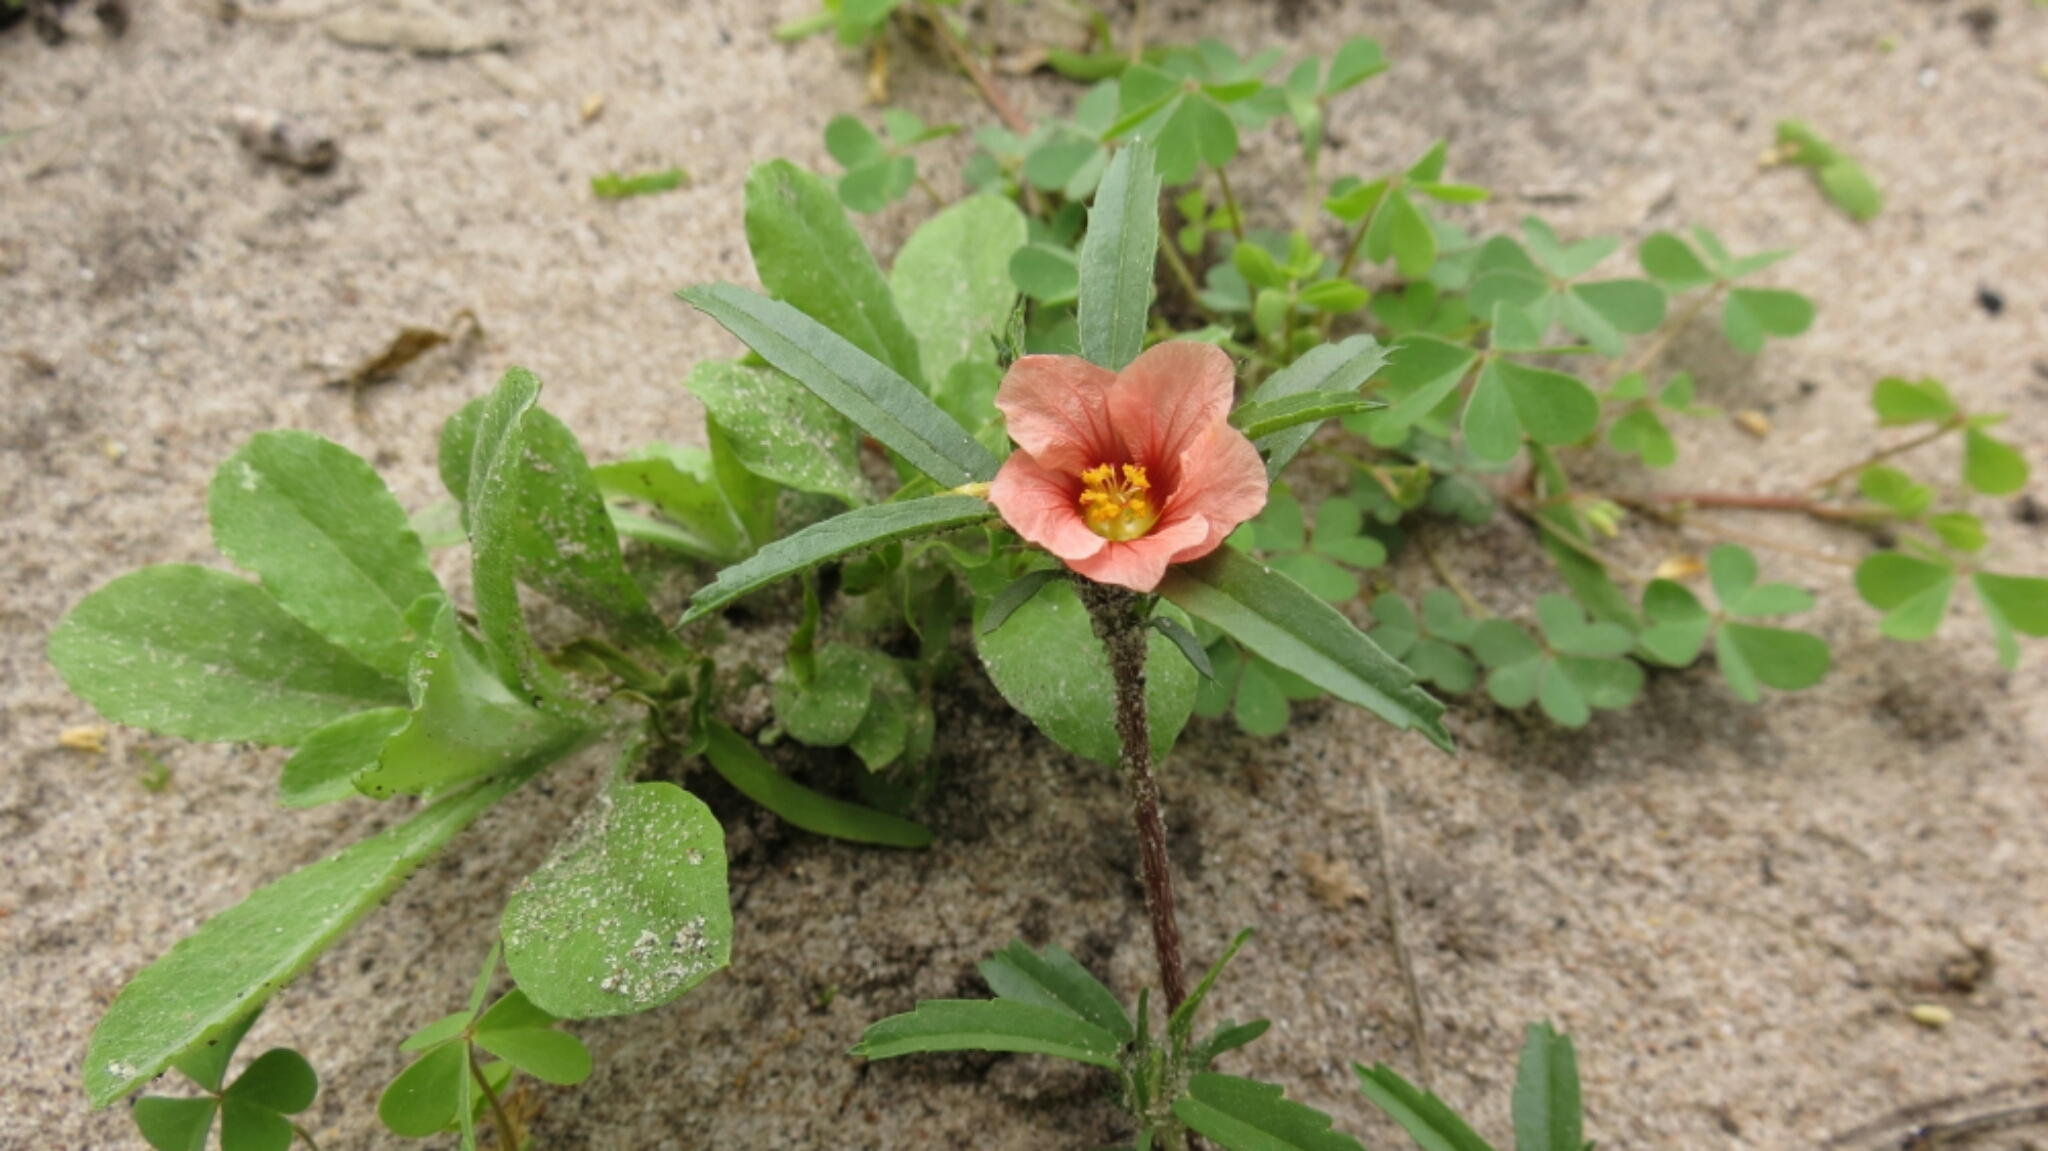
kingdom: Plantae
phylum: Tracheophyta
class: Magnoliopsida
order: Malvales
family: Malvaceae
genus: Sida
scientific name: Sida ciliaris
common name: Bracted fanpetals
